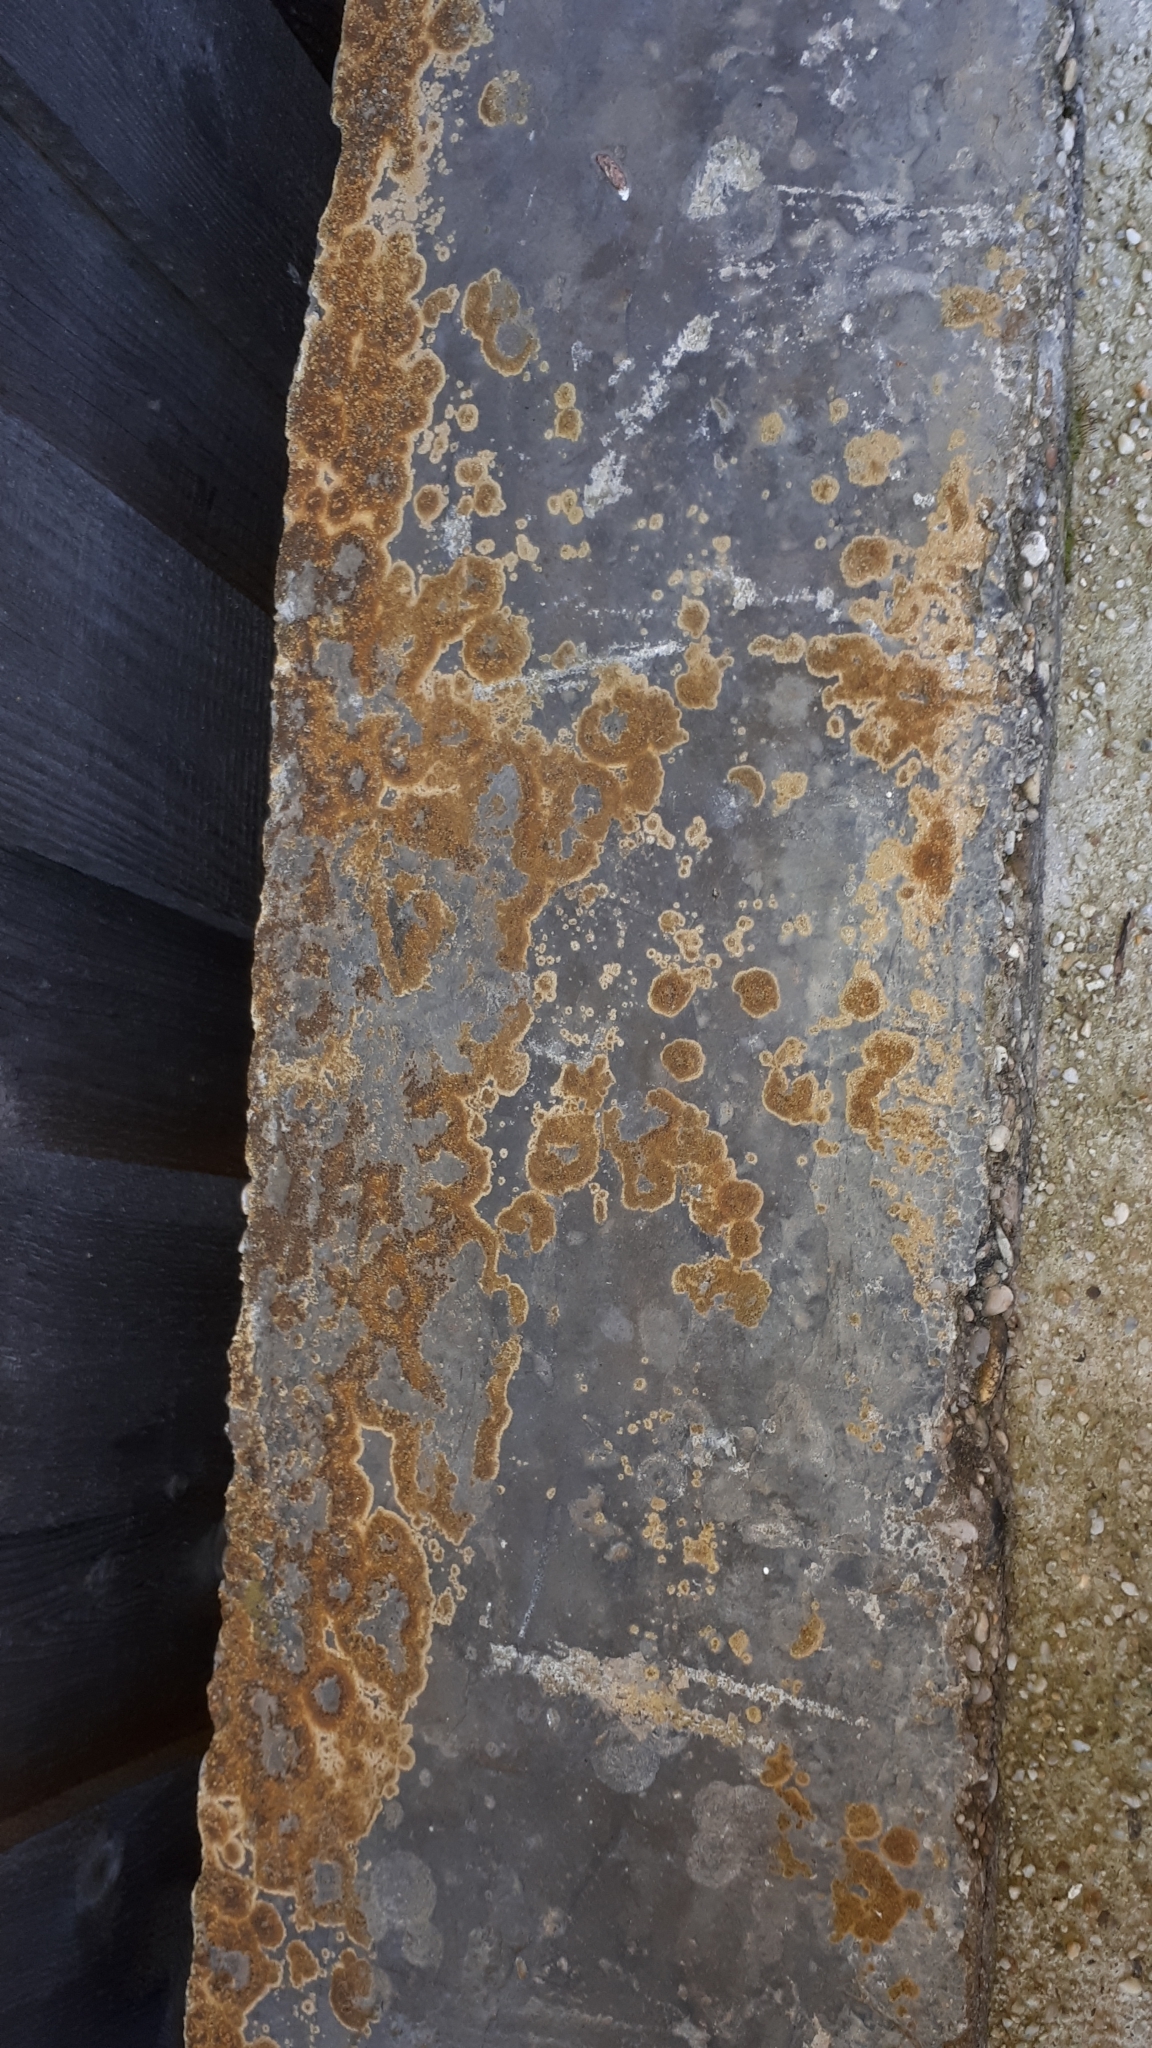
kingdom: Fungi
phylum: Ascomycota
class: Lecanoromycetes
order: Teloschistales
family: Teloschistaceae
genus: Calogaya
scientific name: Calogaya pusilla
